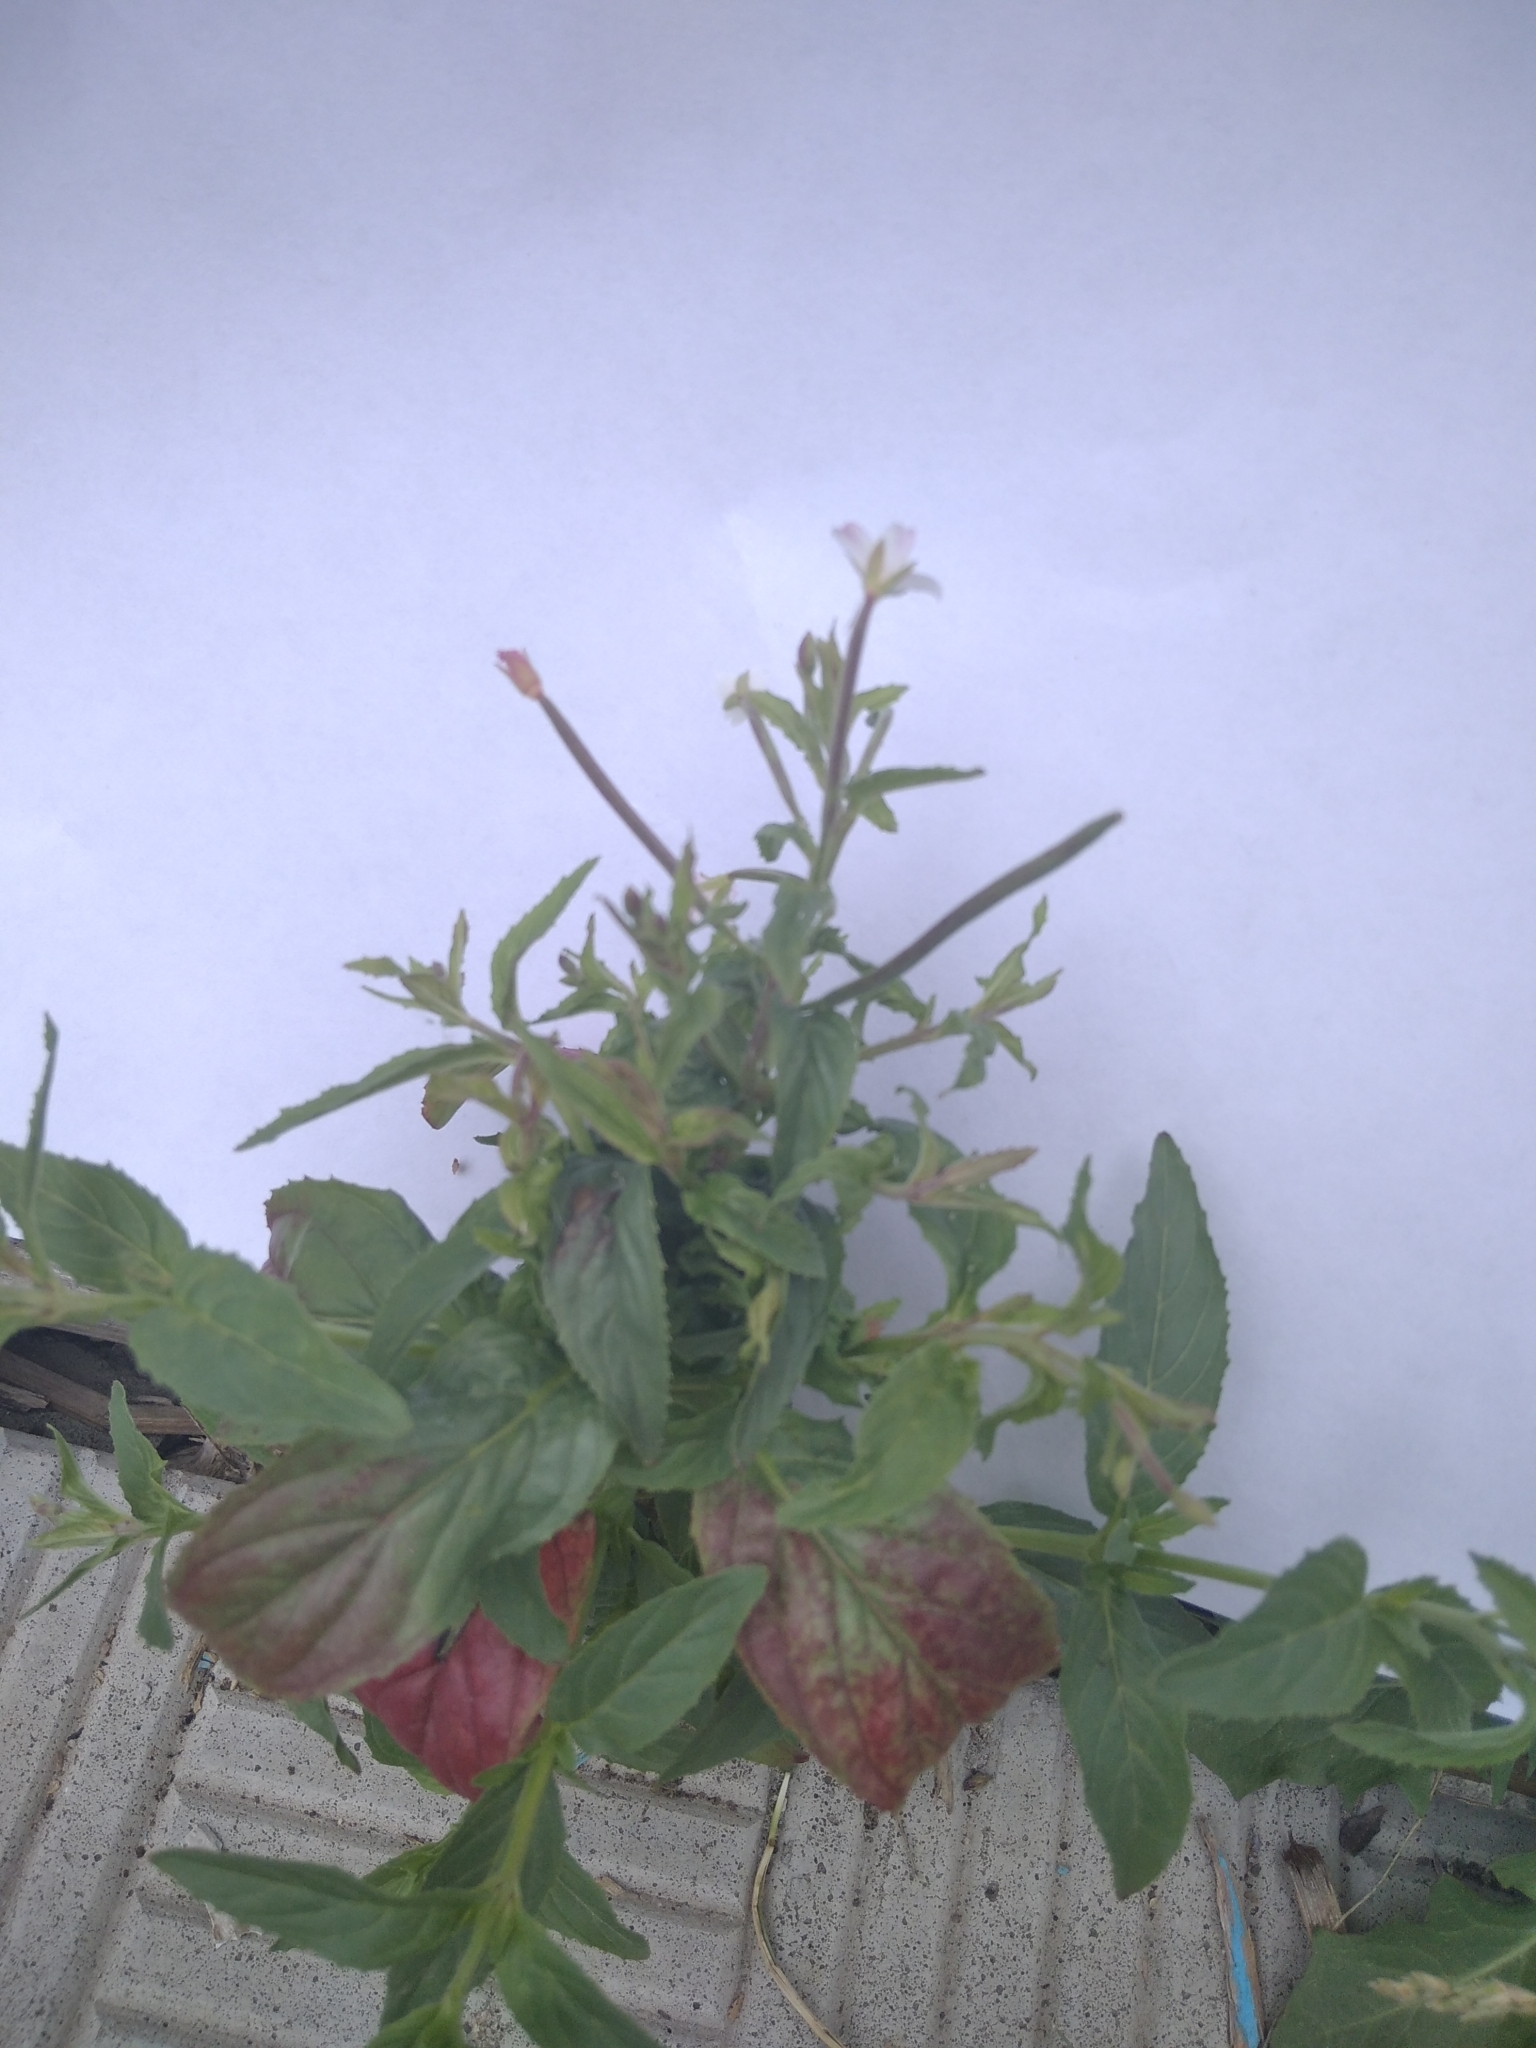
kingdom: Plantae
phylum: Tracheophyta
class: Magnoliopsida
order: Myrtales
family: Onagraceae
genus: Epilobium
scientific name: Epilobium ciliatum
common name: American willowherb
